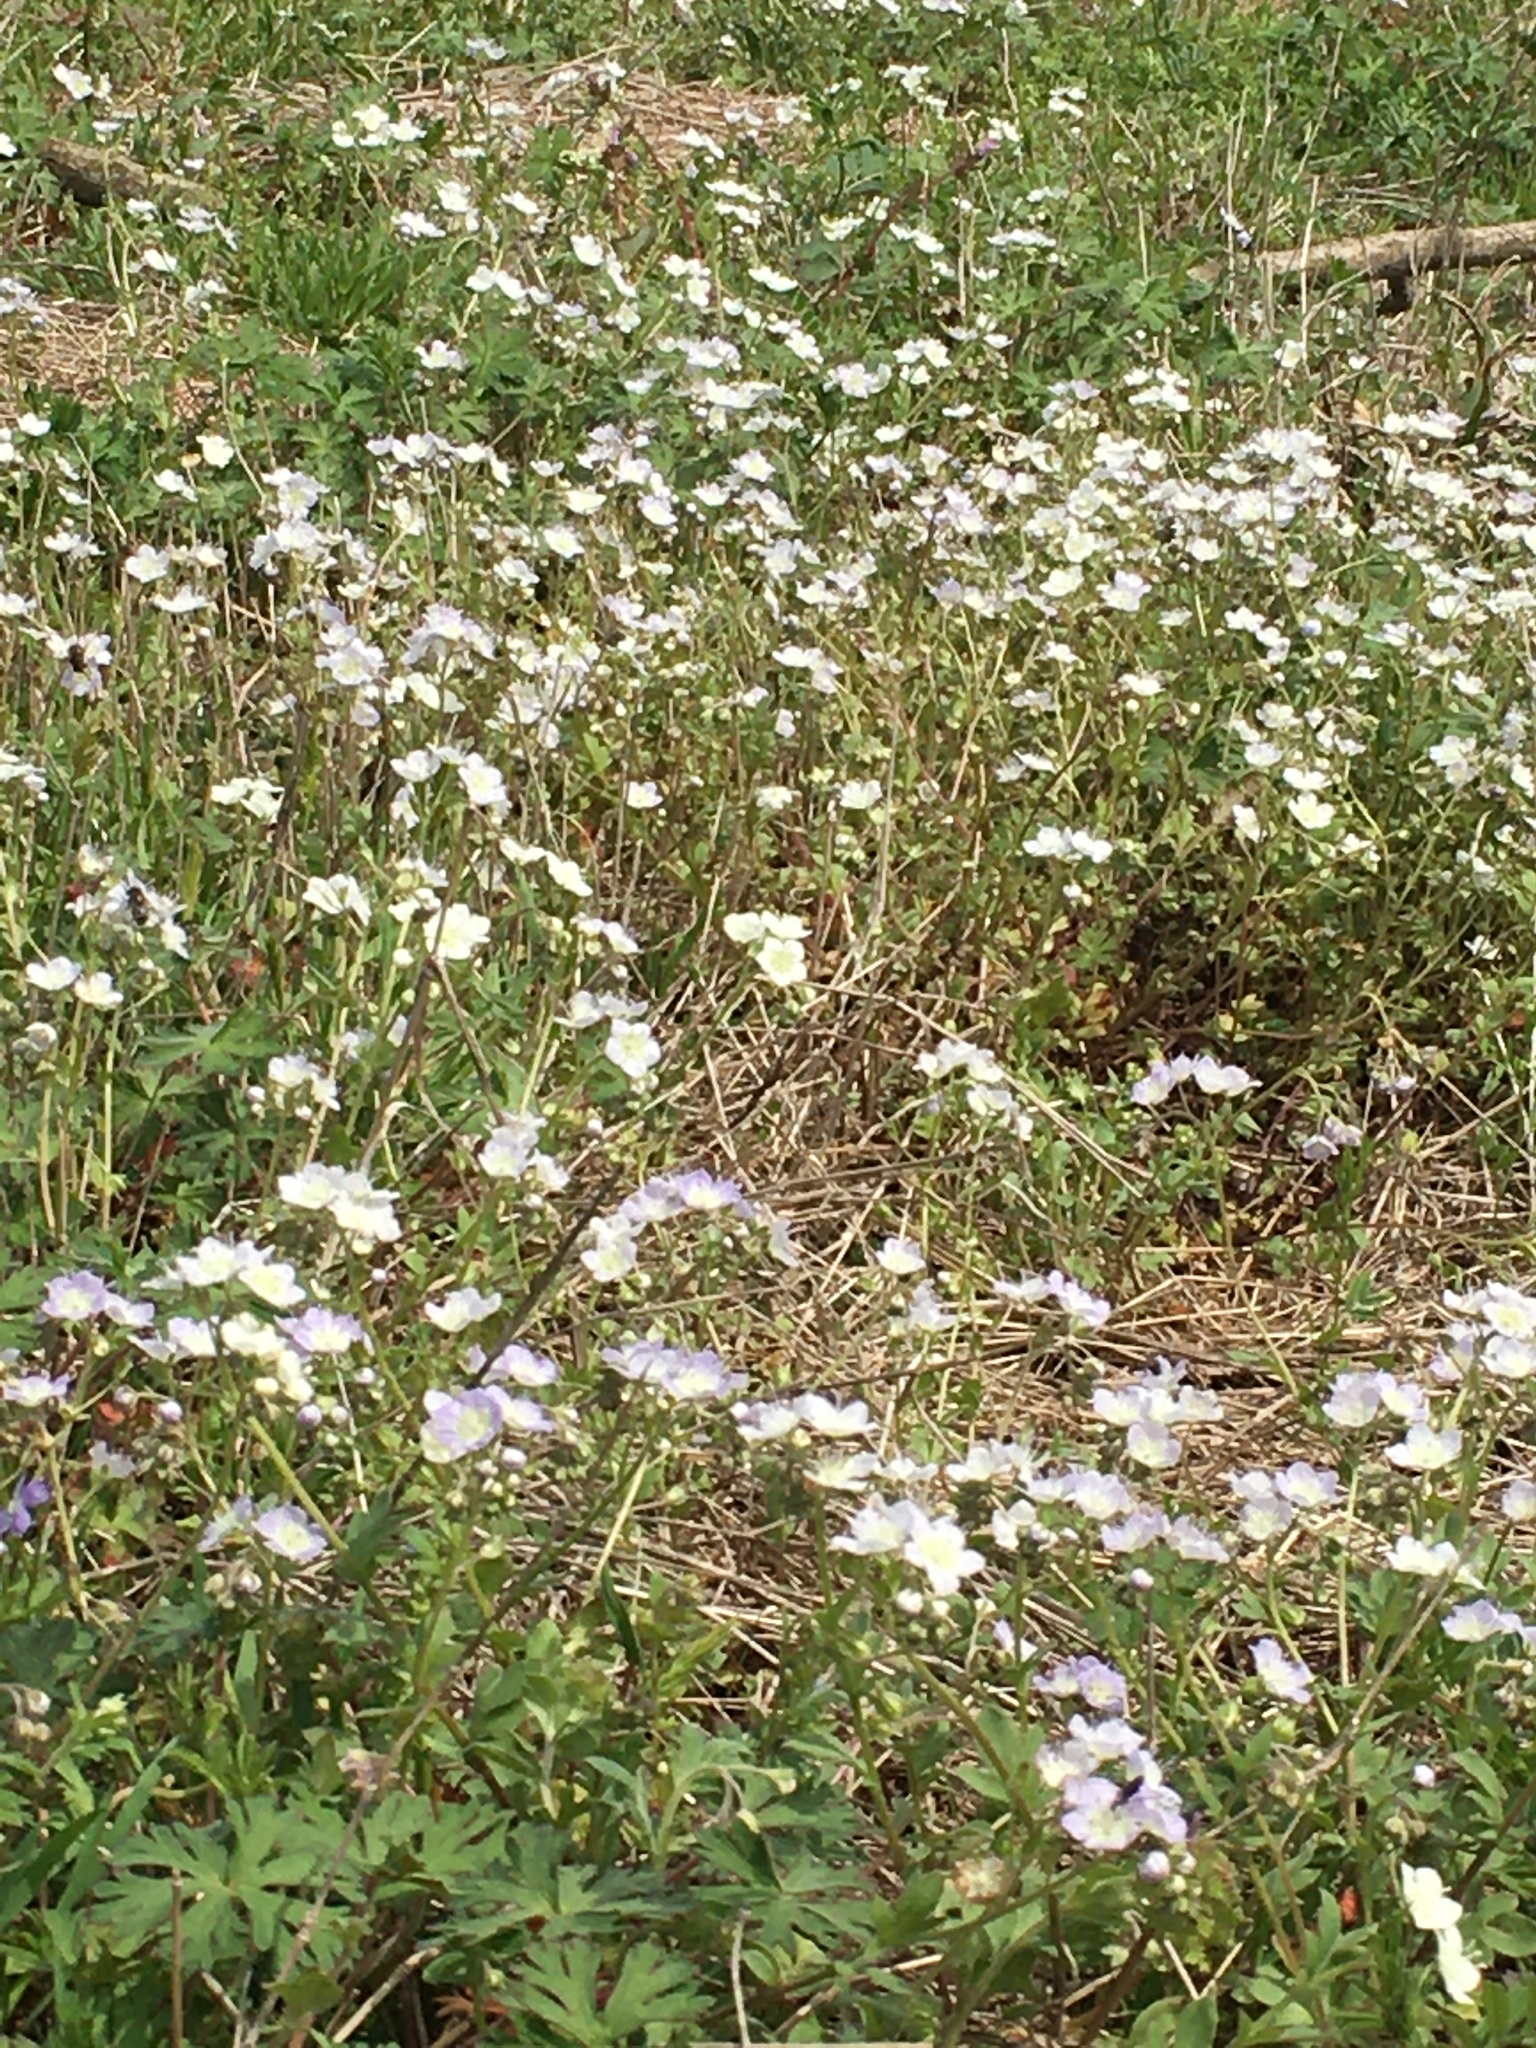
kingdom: Plantae
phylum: Tracheophyta
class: Magnoliopsida
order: Boraginales
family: Hydrophyllaceae
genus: Phacelia
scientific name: Phacelia dubia
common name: Appalachian phacelia
